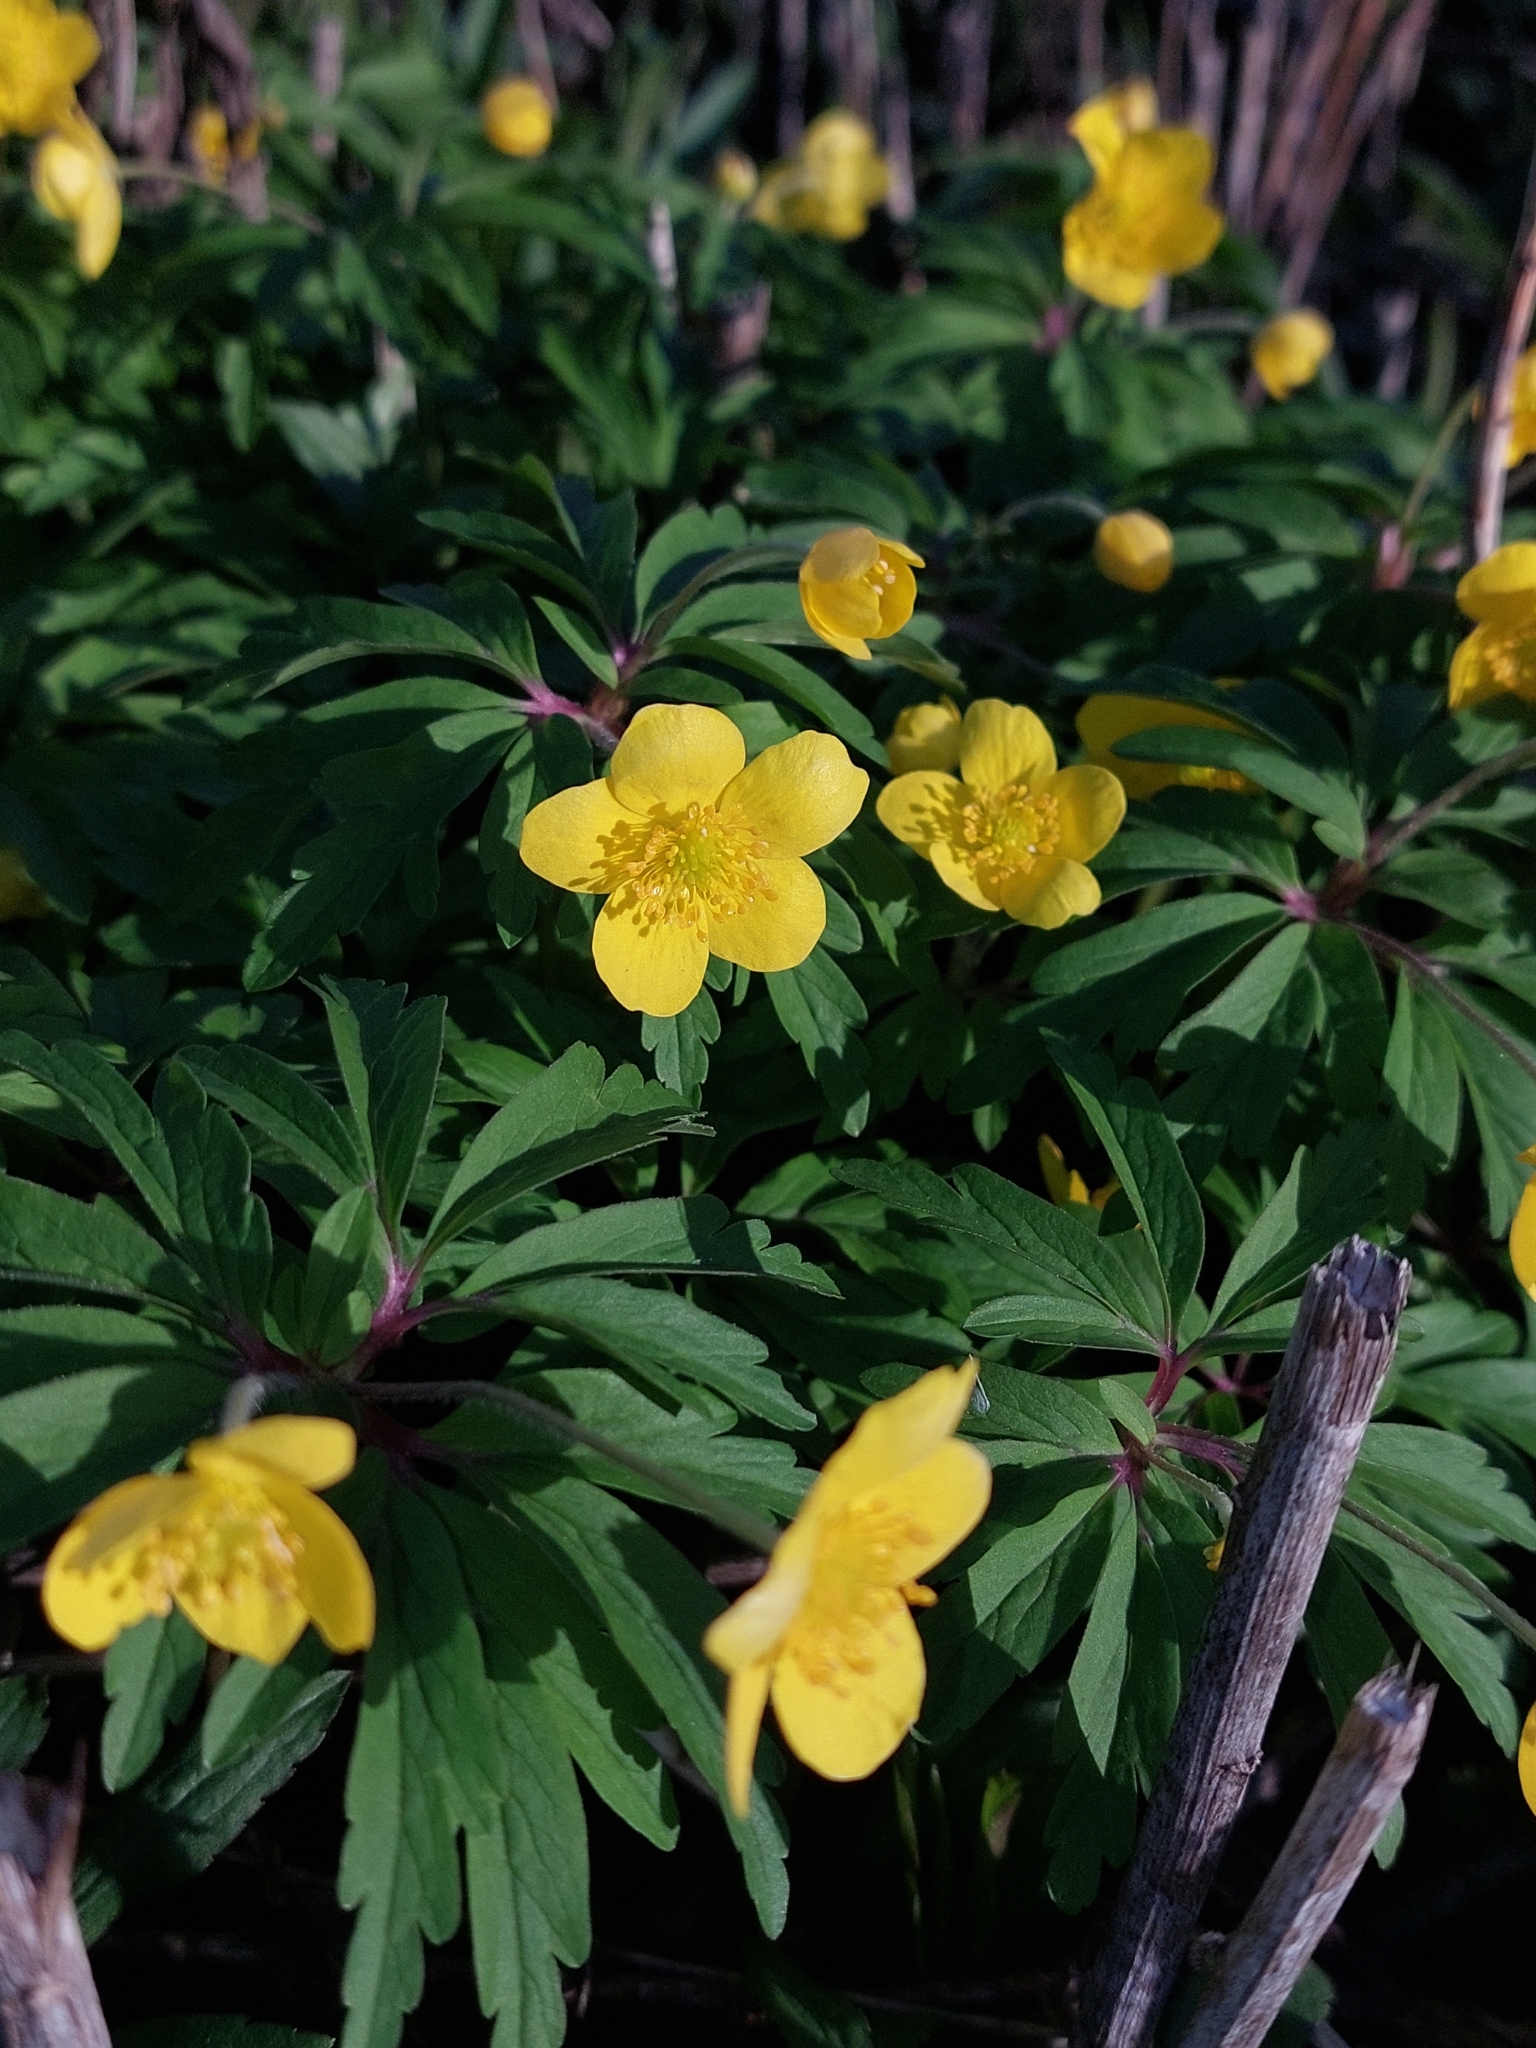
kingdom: Plantae
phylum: Tracheophyta
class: Magnoliopsida
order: Ranunculales
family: Ranunculaceae
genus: Anemone
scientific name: Anemone ranunculoides
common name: Yellow anemone
